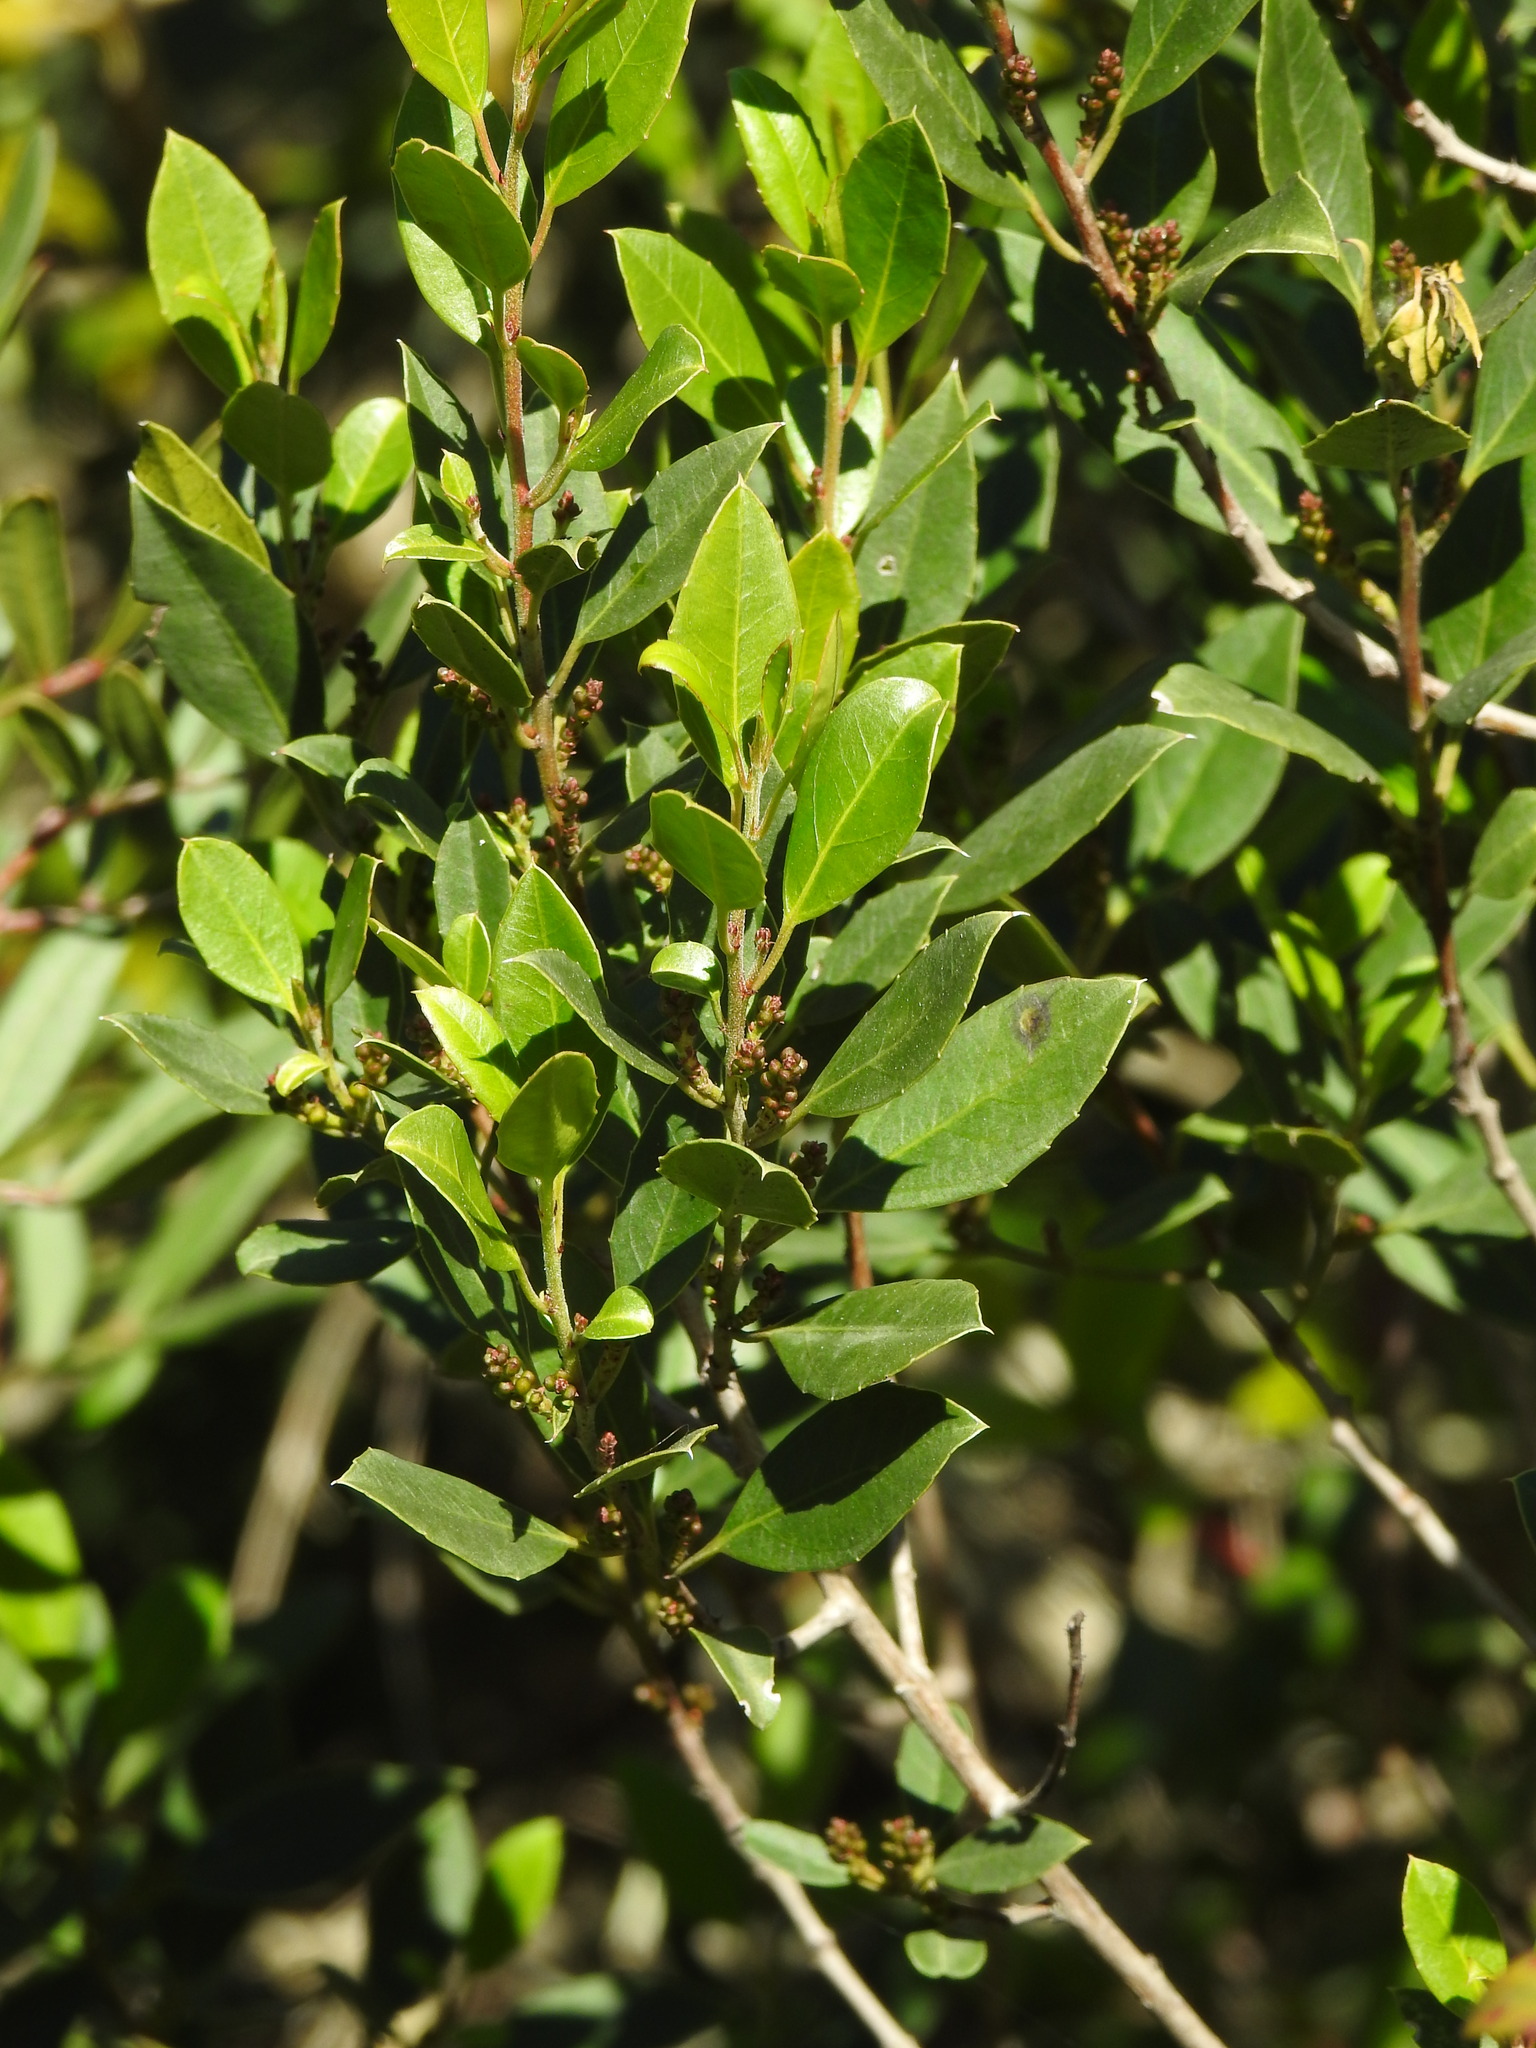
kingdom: Plantae
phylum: Tracheophyta
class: Magnoliopsida
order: Rosales
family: Rhamnaceae
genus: Rhamnus
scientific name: Rhamnus alaternus
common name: Mediterranean buckthorn
